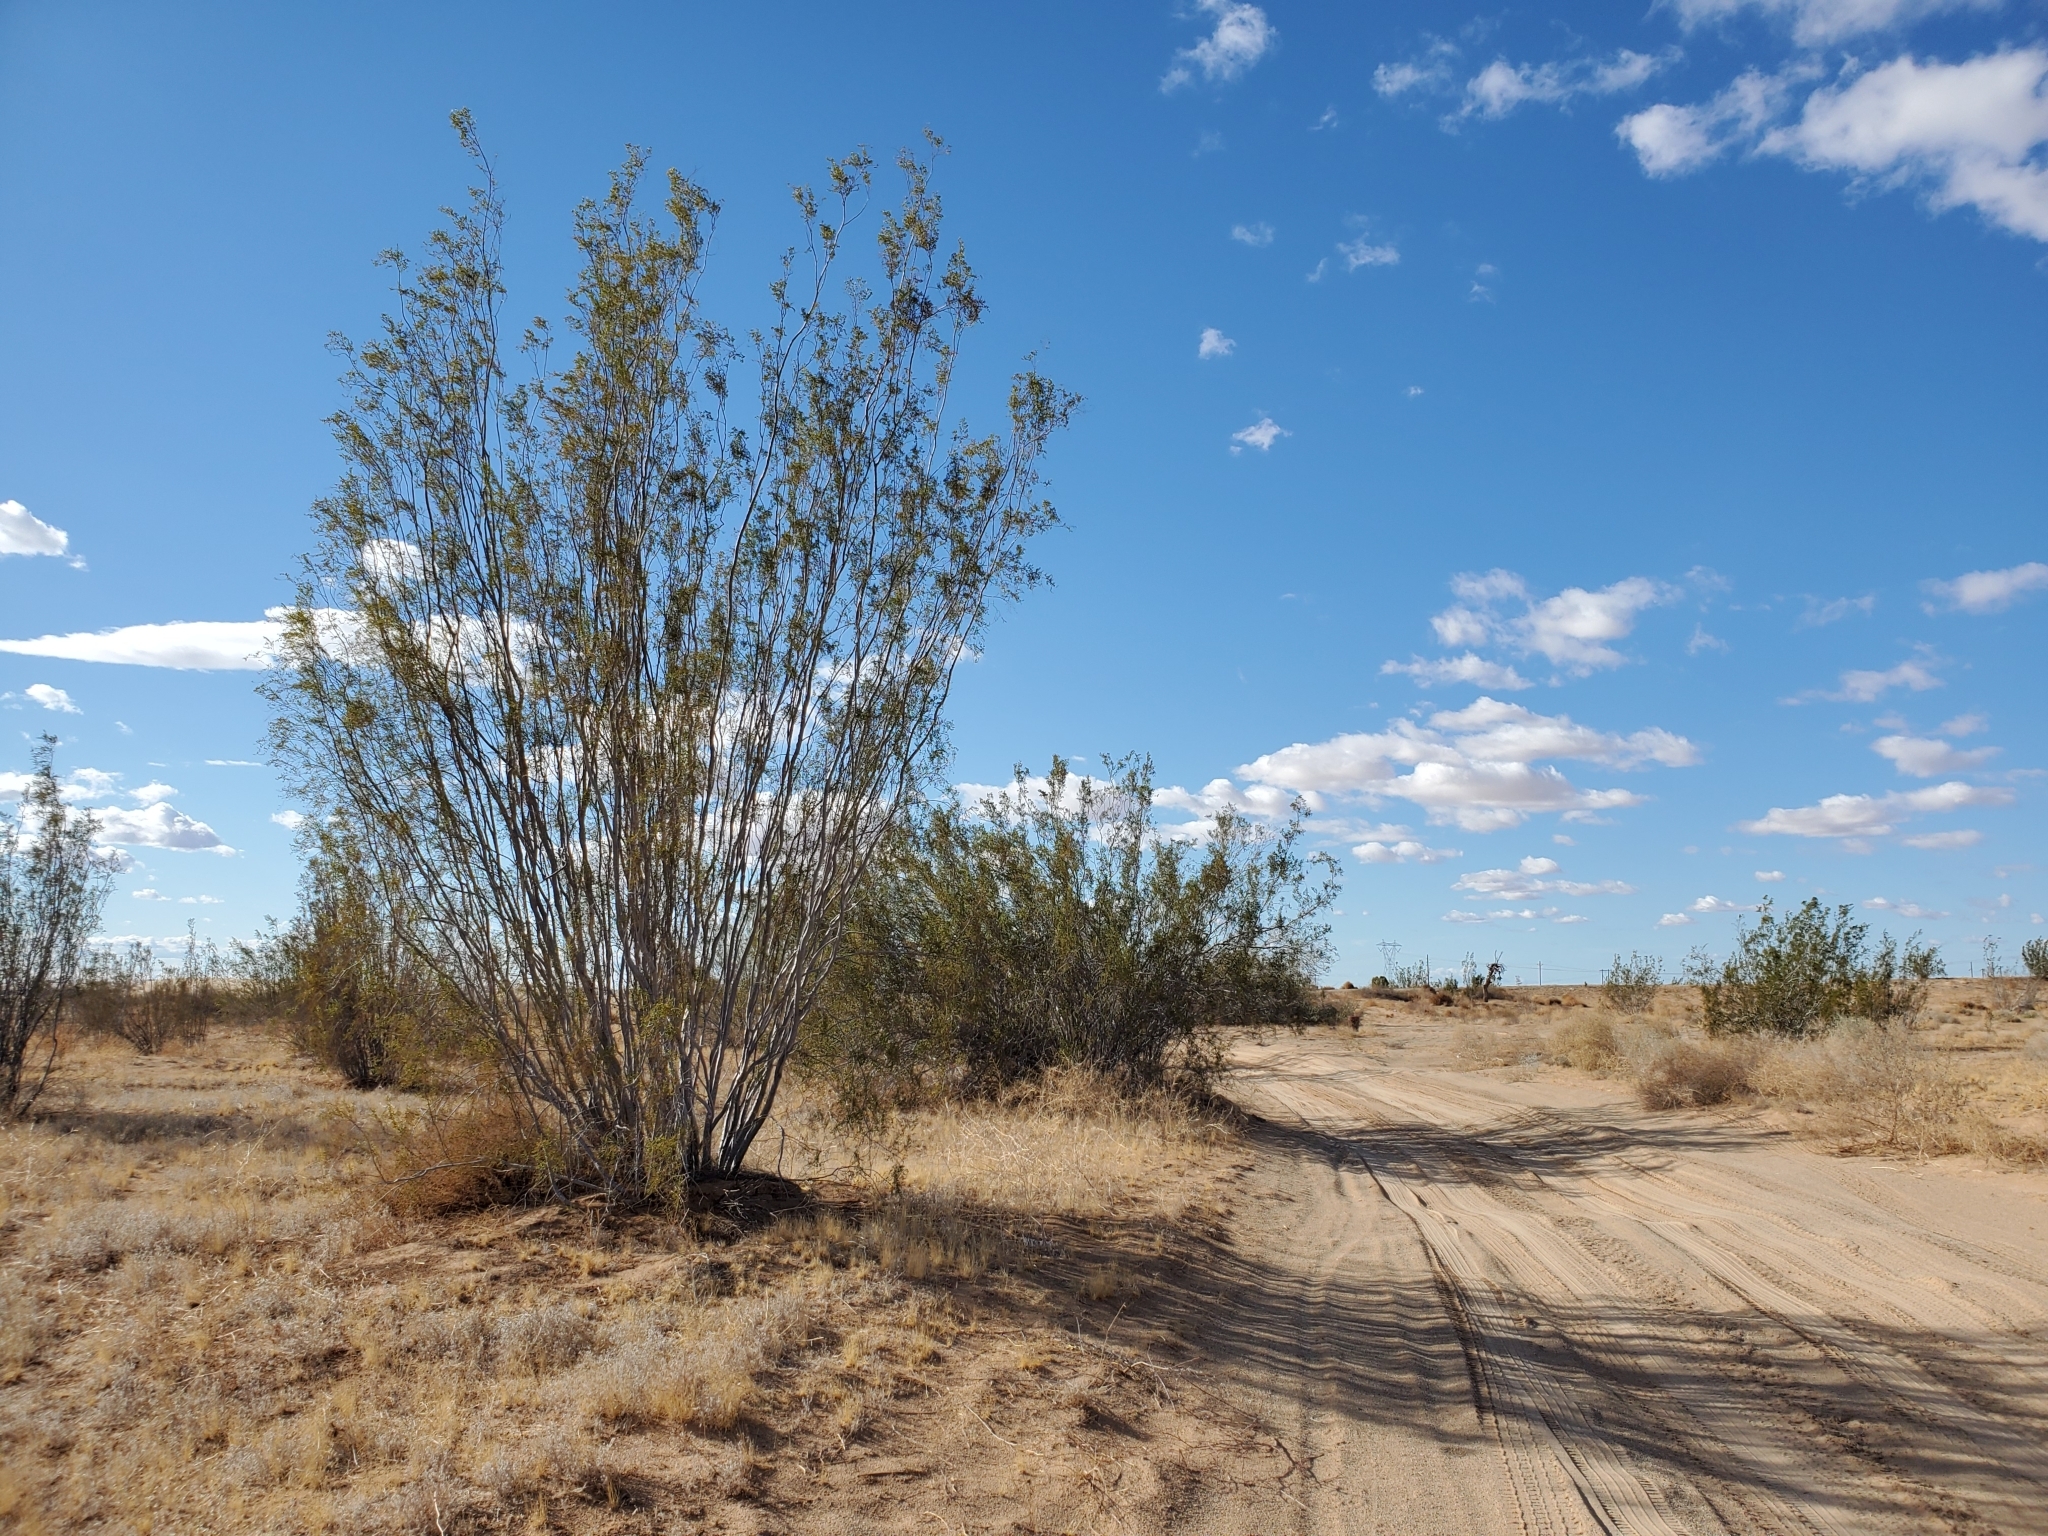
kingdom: Plantae
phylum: Tracheophyta
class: Magnoliopsida
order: Zygophyllales
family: Zygophyllaceae
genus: Larrea
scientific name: Larrea tridentata
